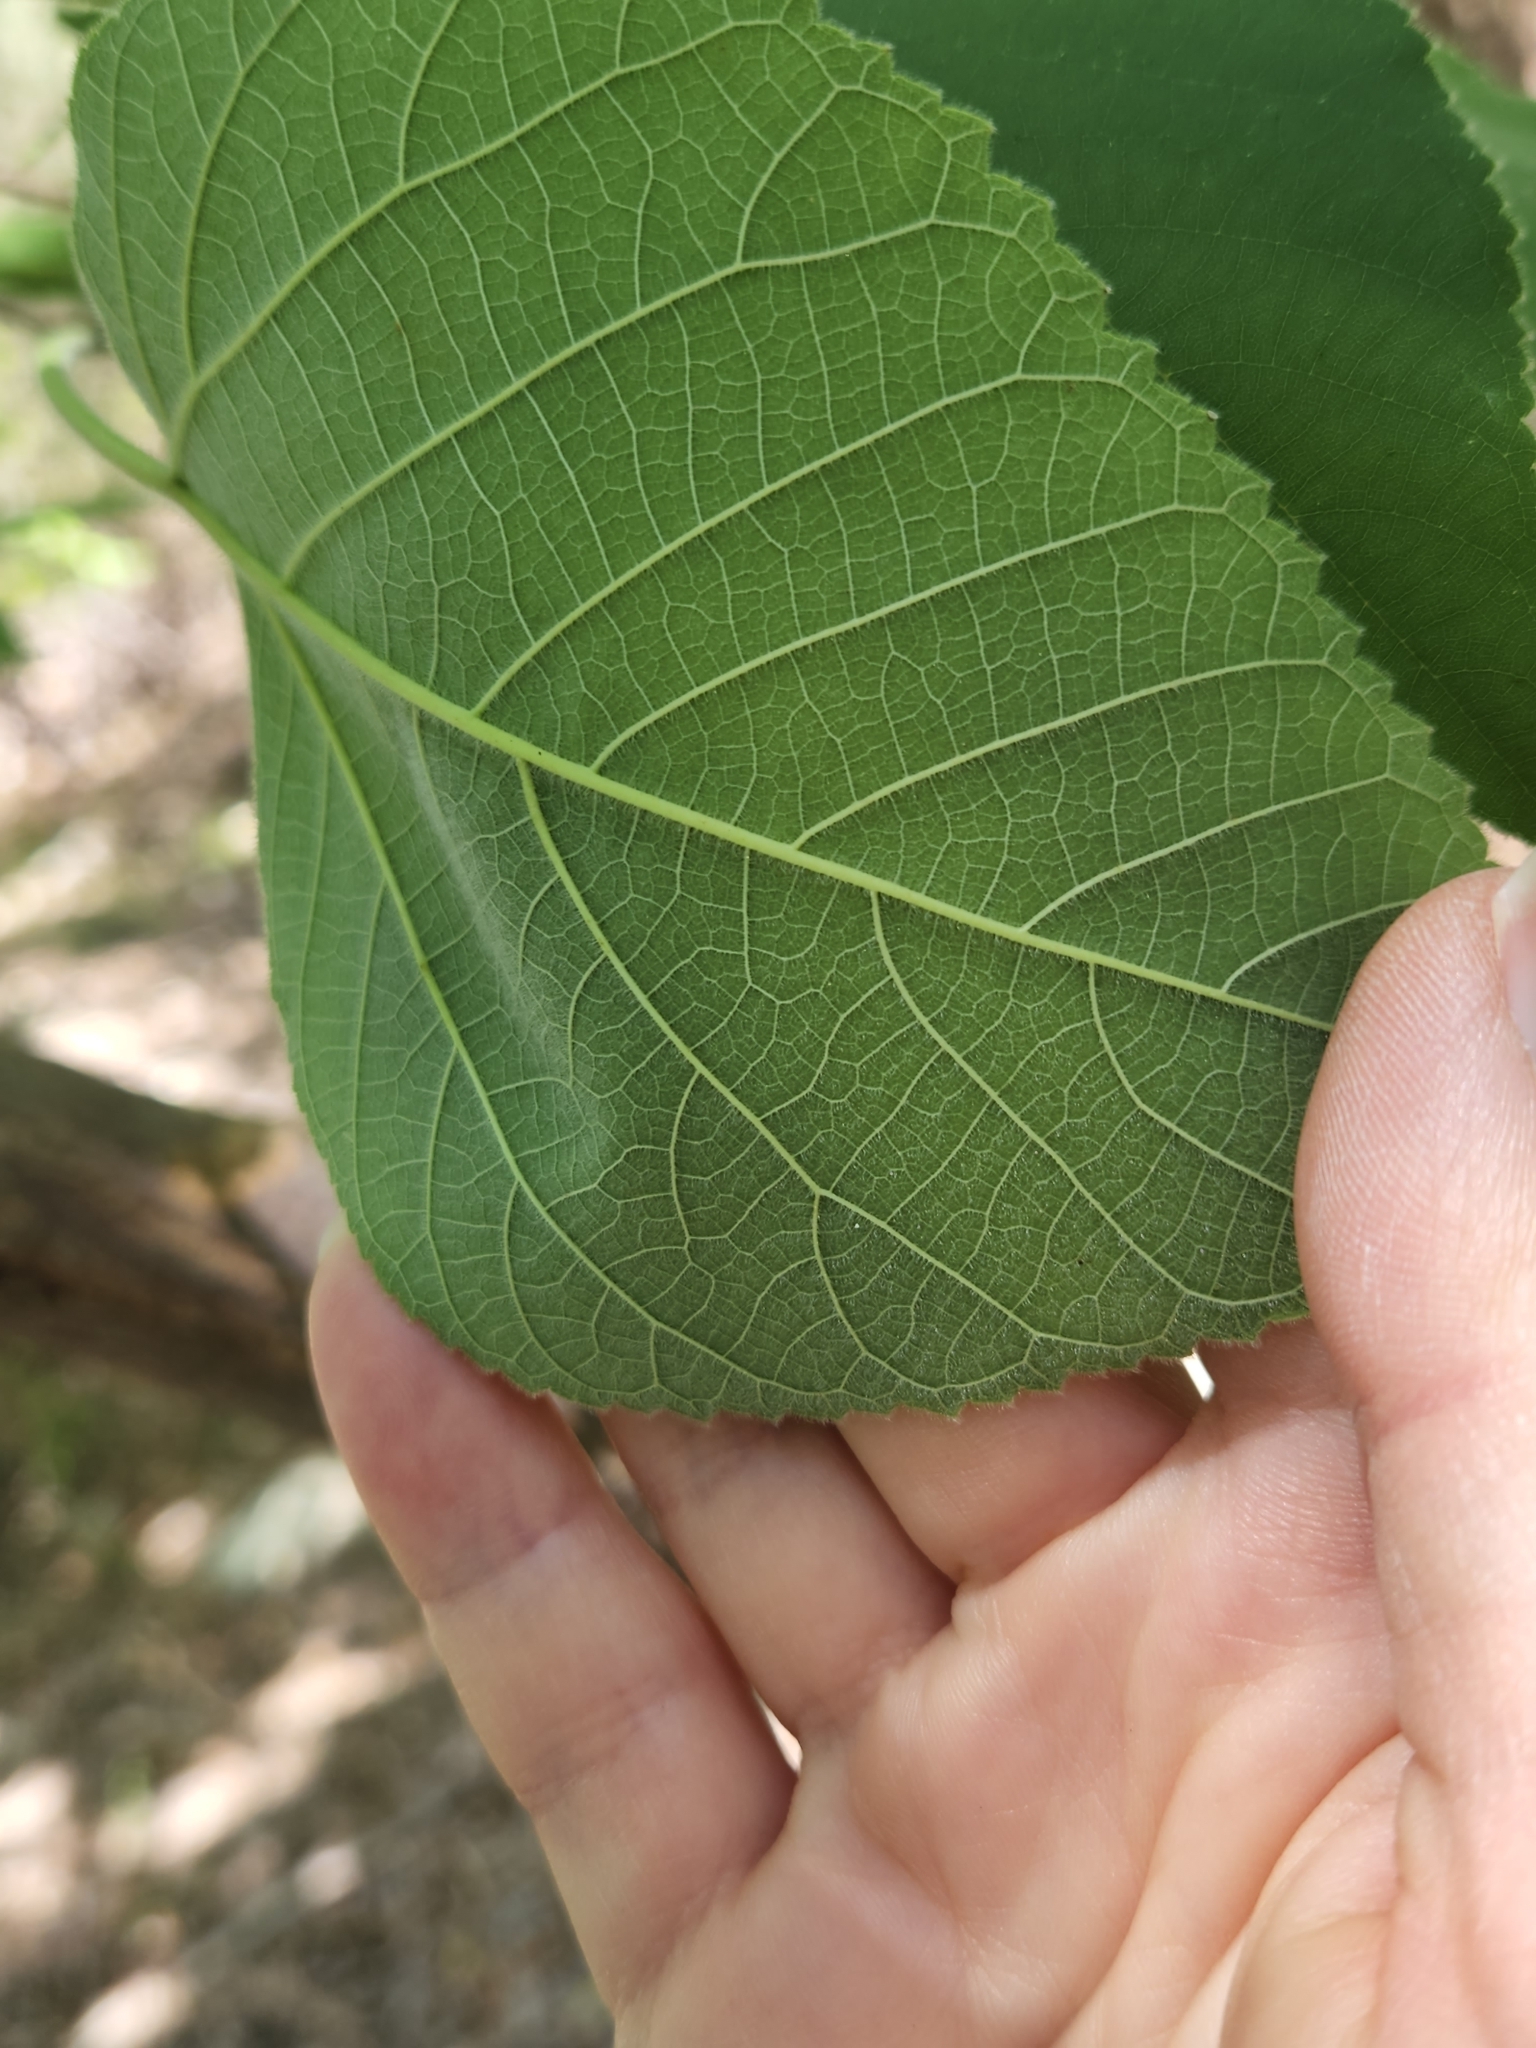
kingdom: Plantae
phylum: Tracheophyta
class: Magnoliopsida
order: Rosales
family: Moraceae
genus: Broussonetia
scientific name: Broussonetia papyrifera
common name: Paper mulberry
